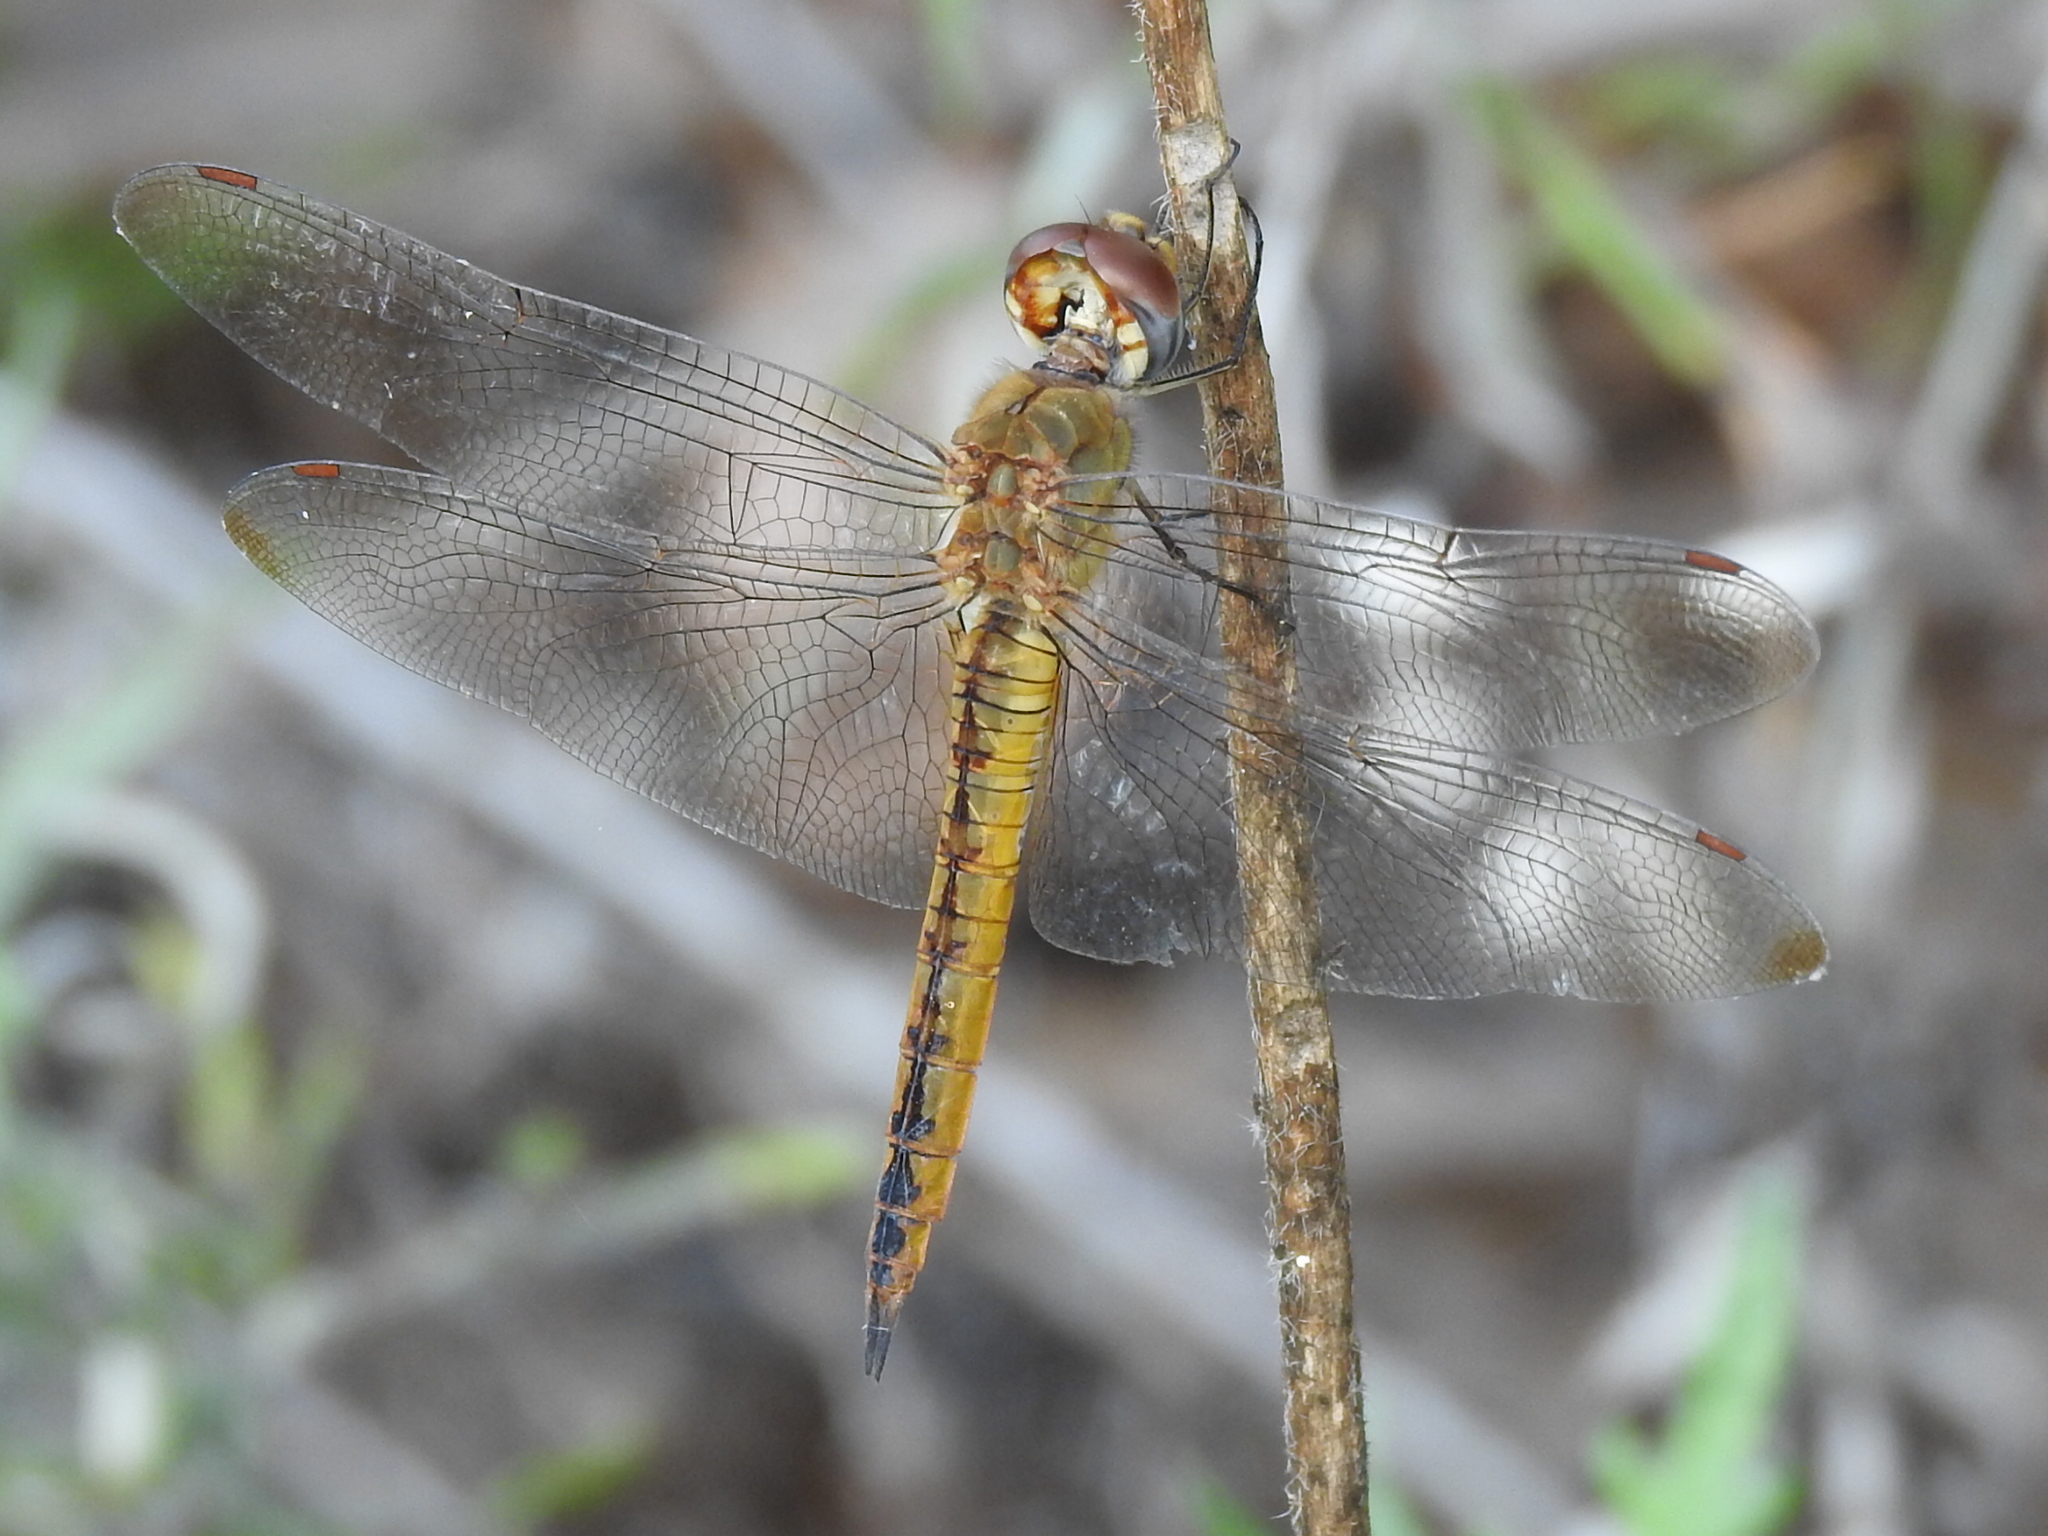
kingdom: Animalia
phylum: Arthropoda
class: Insecta
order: Odonata
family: Libellulidae
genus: Pantala
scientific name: Pantala flavescens
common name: Wandering glider
